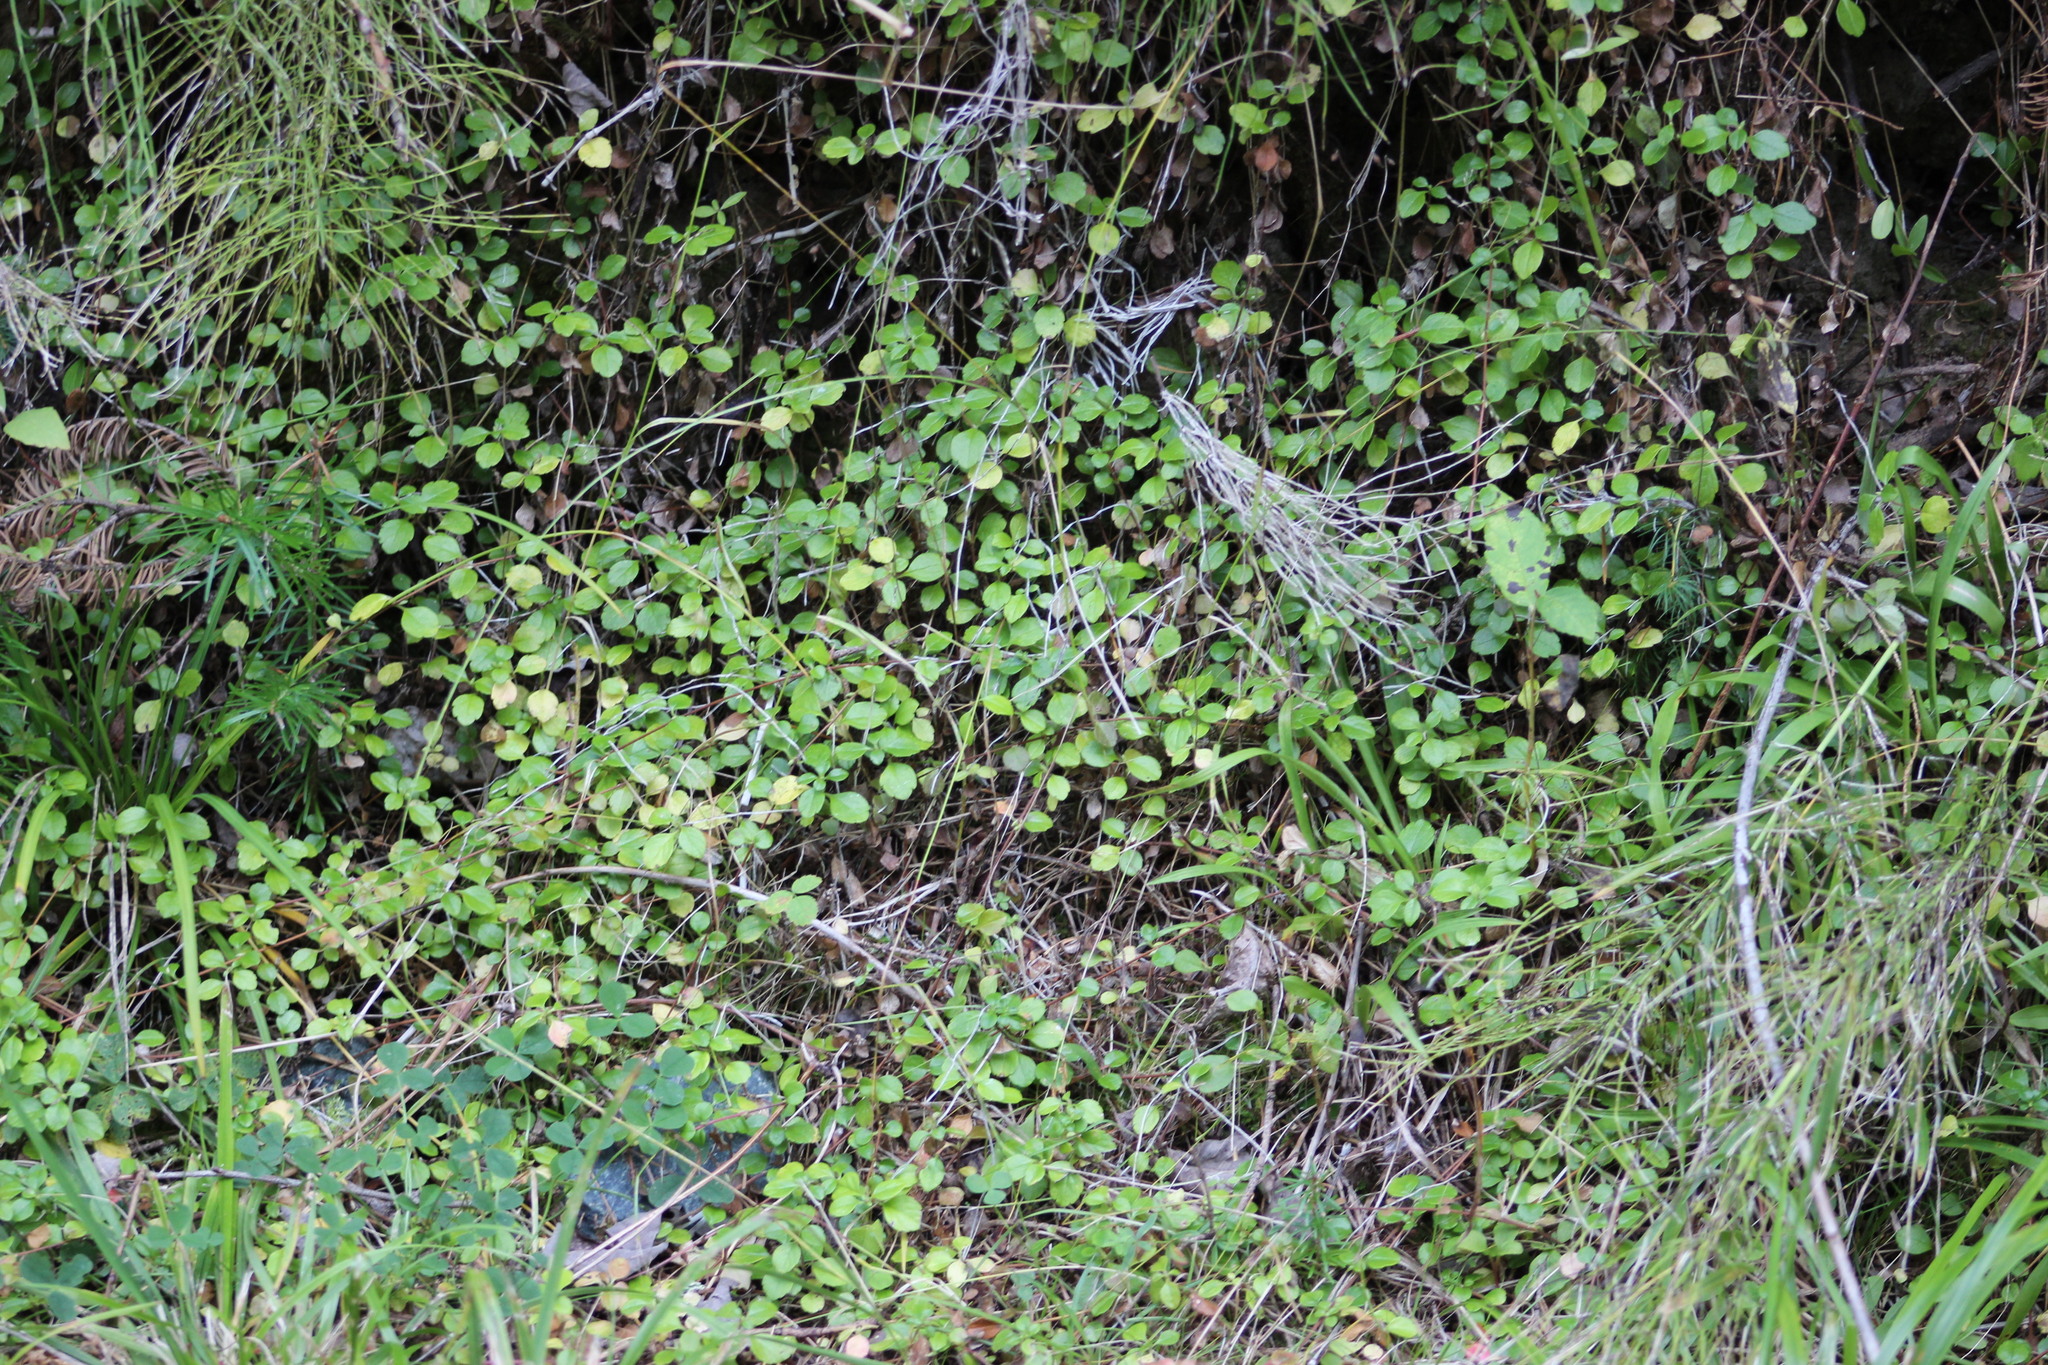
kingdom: Plantae
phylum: Tracheophyta
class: Magnoliopsida
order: Dipsacales
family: Caprifoliaceae
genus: Linnaea
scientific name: Linnaea borealis
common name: Twinflower
